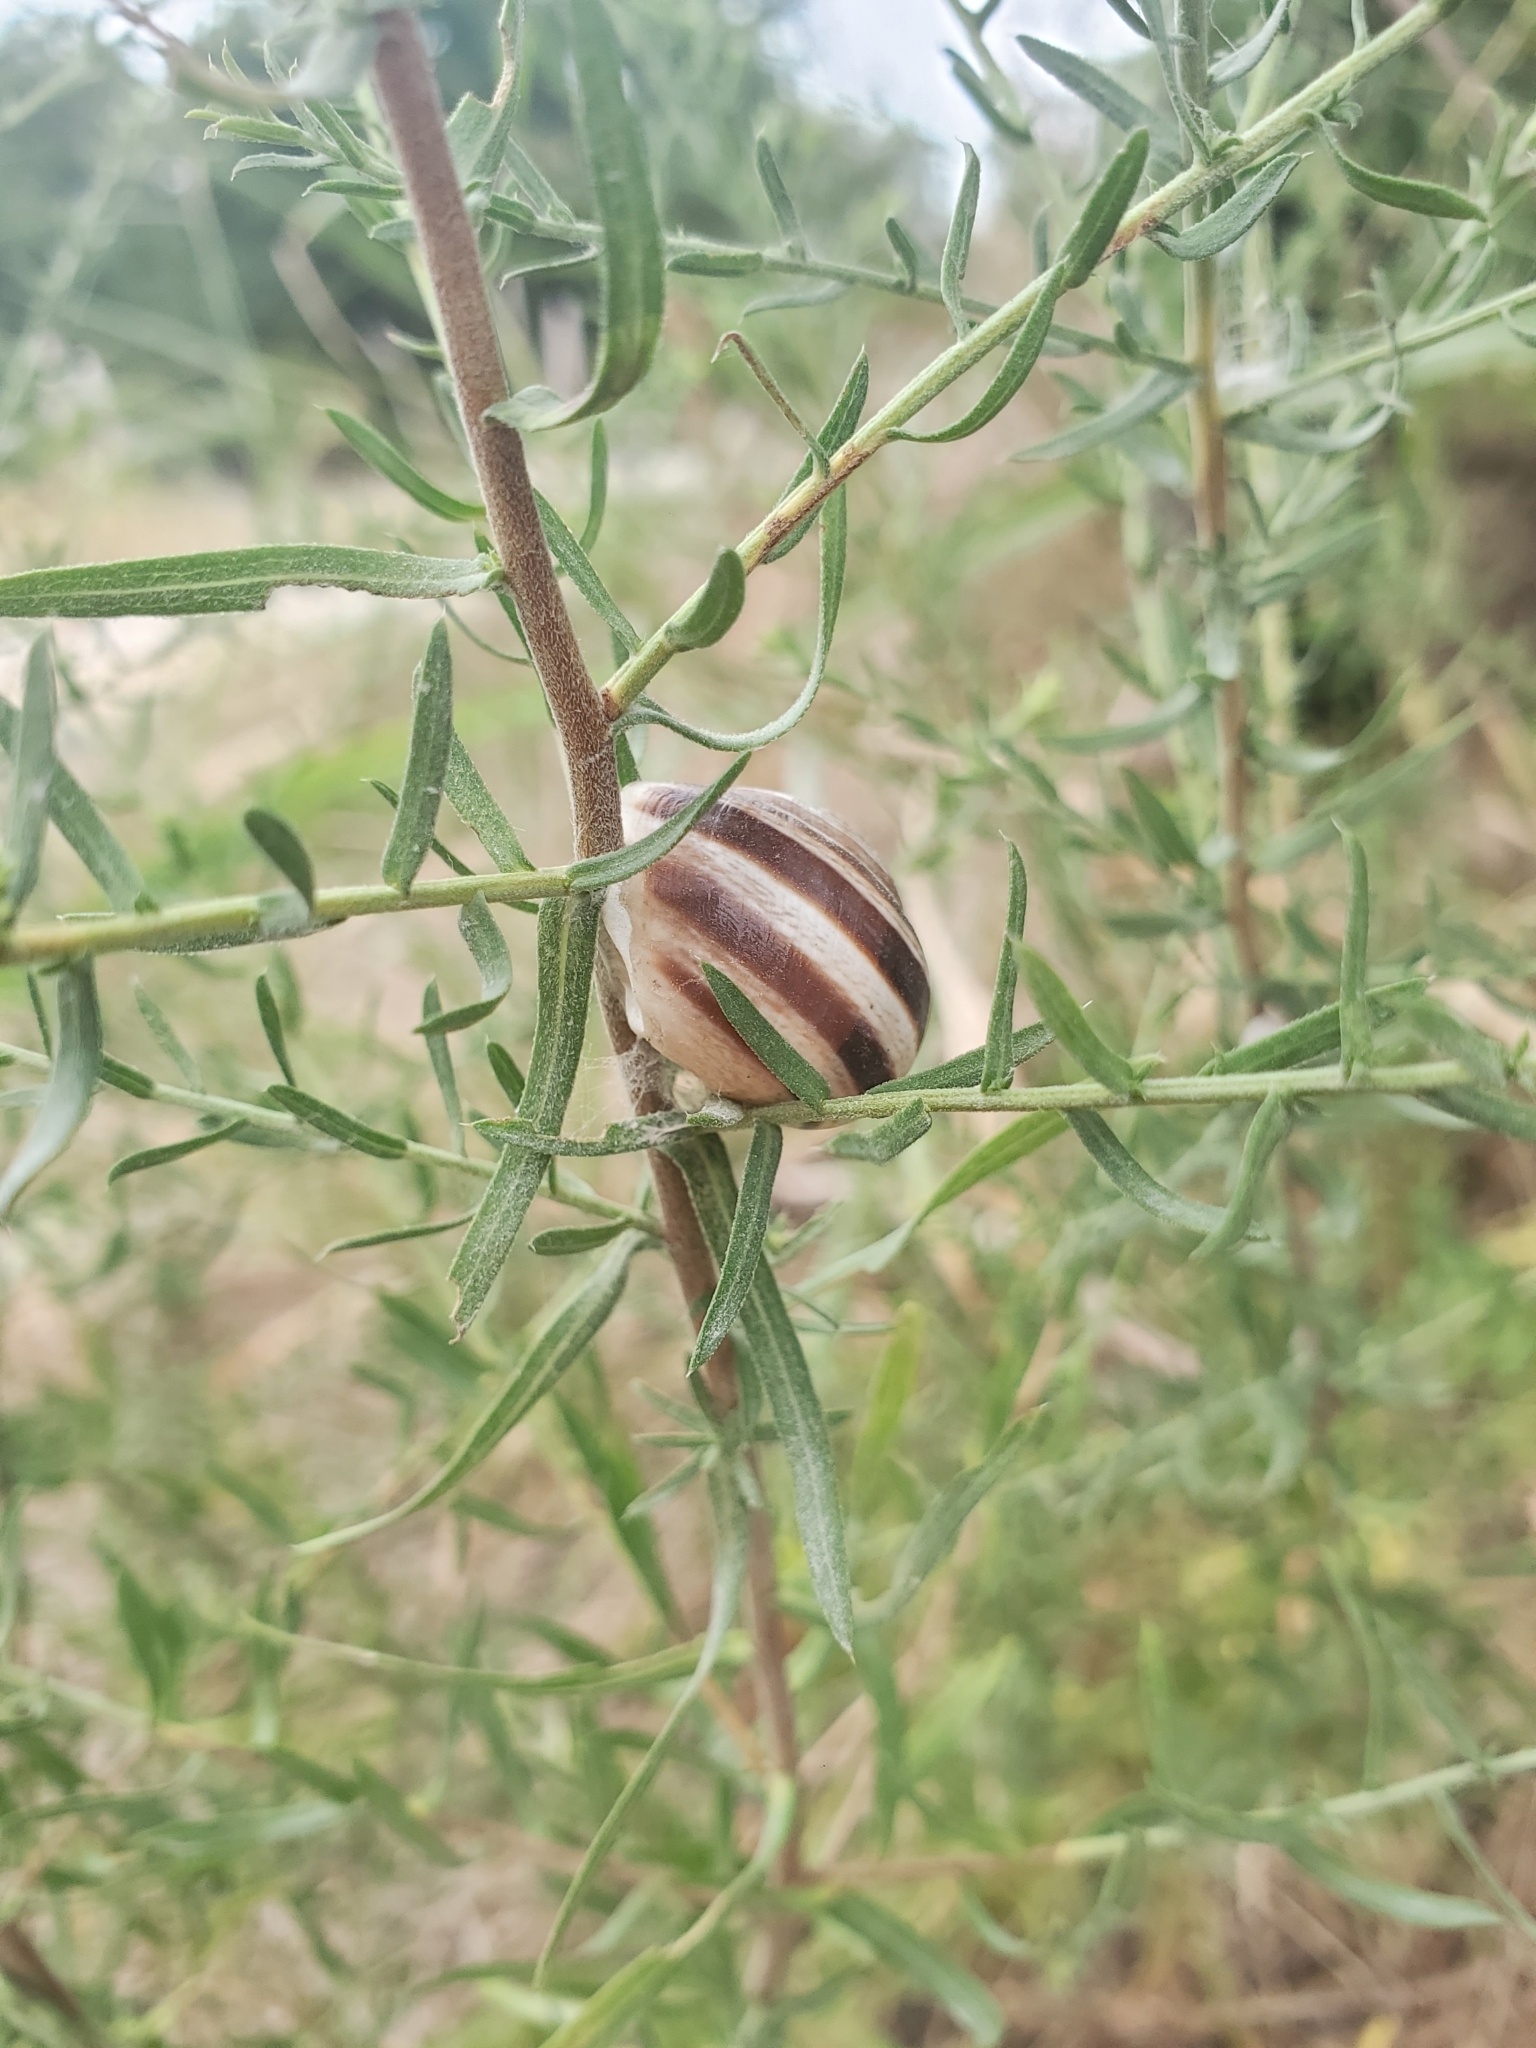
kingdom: Animalia
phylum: Mollusca
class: Gastropoda
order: Stylommatophora
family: Helicidae
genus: Otala
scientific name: Otala lactea
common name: Milk snail
